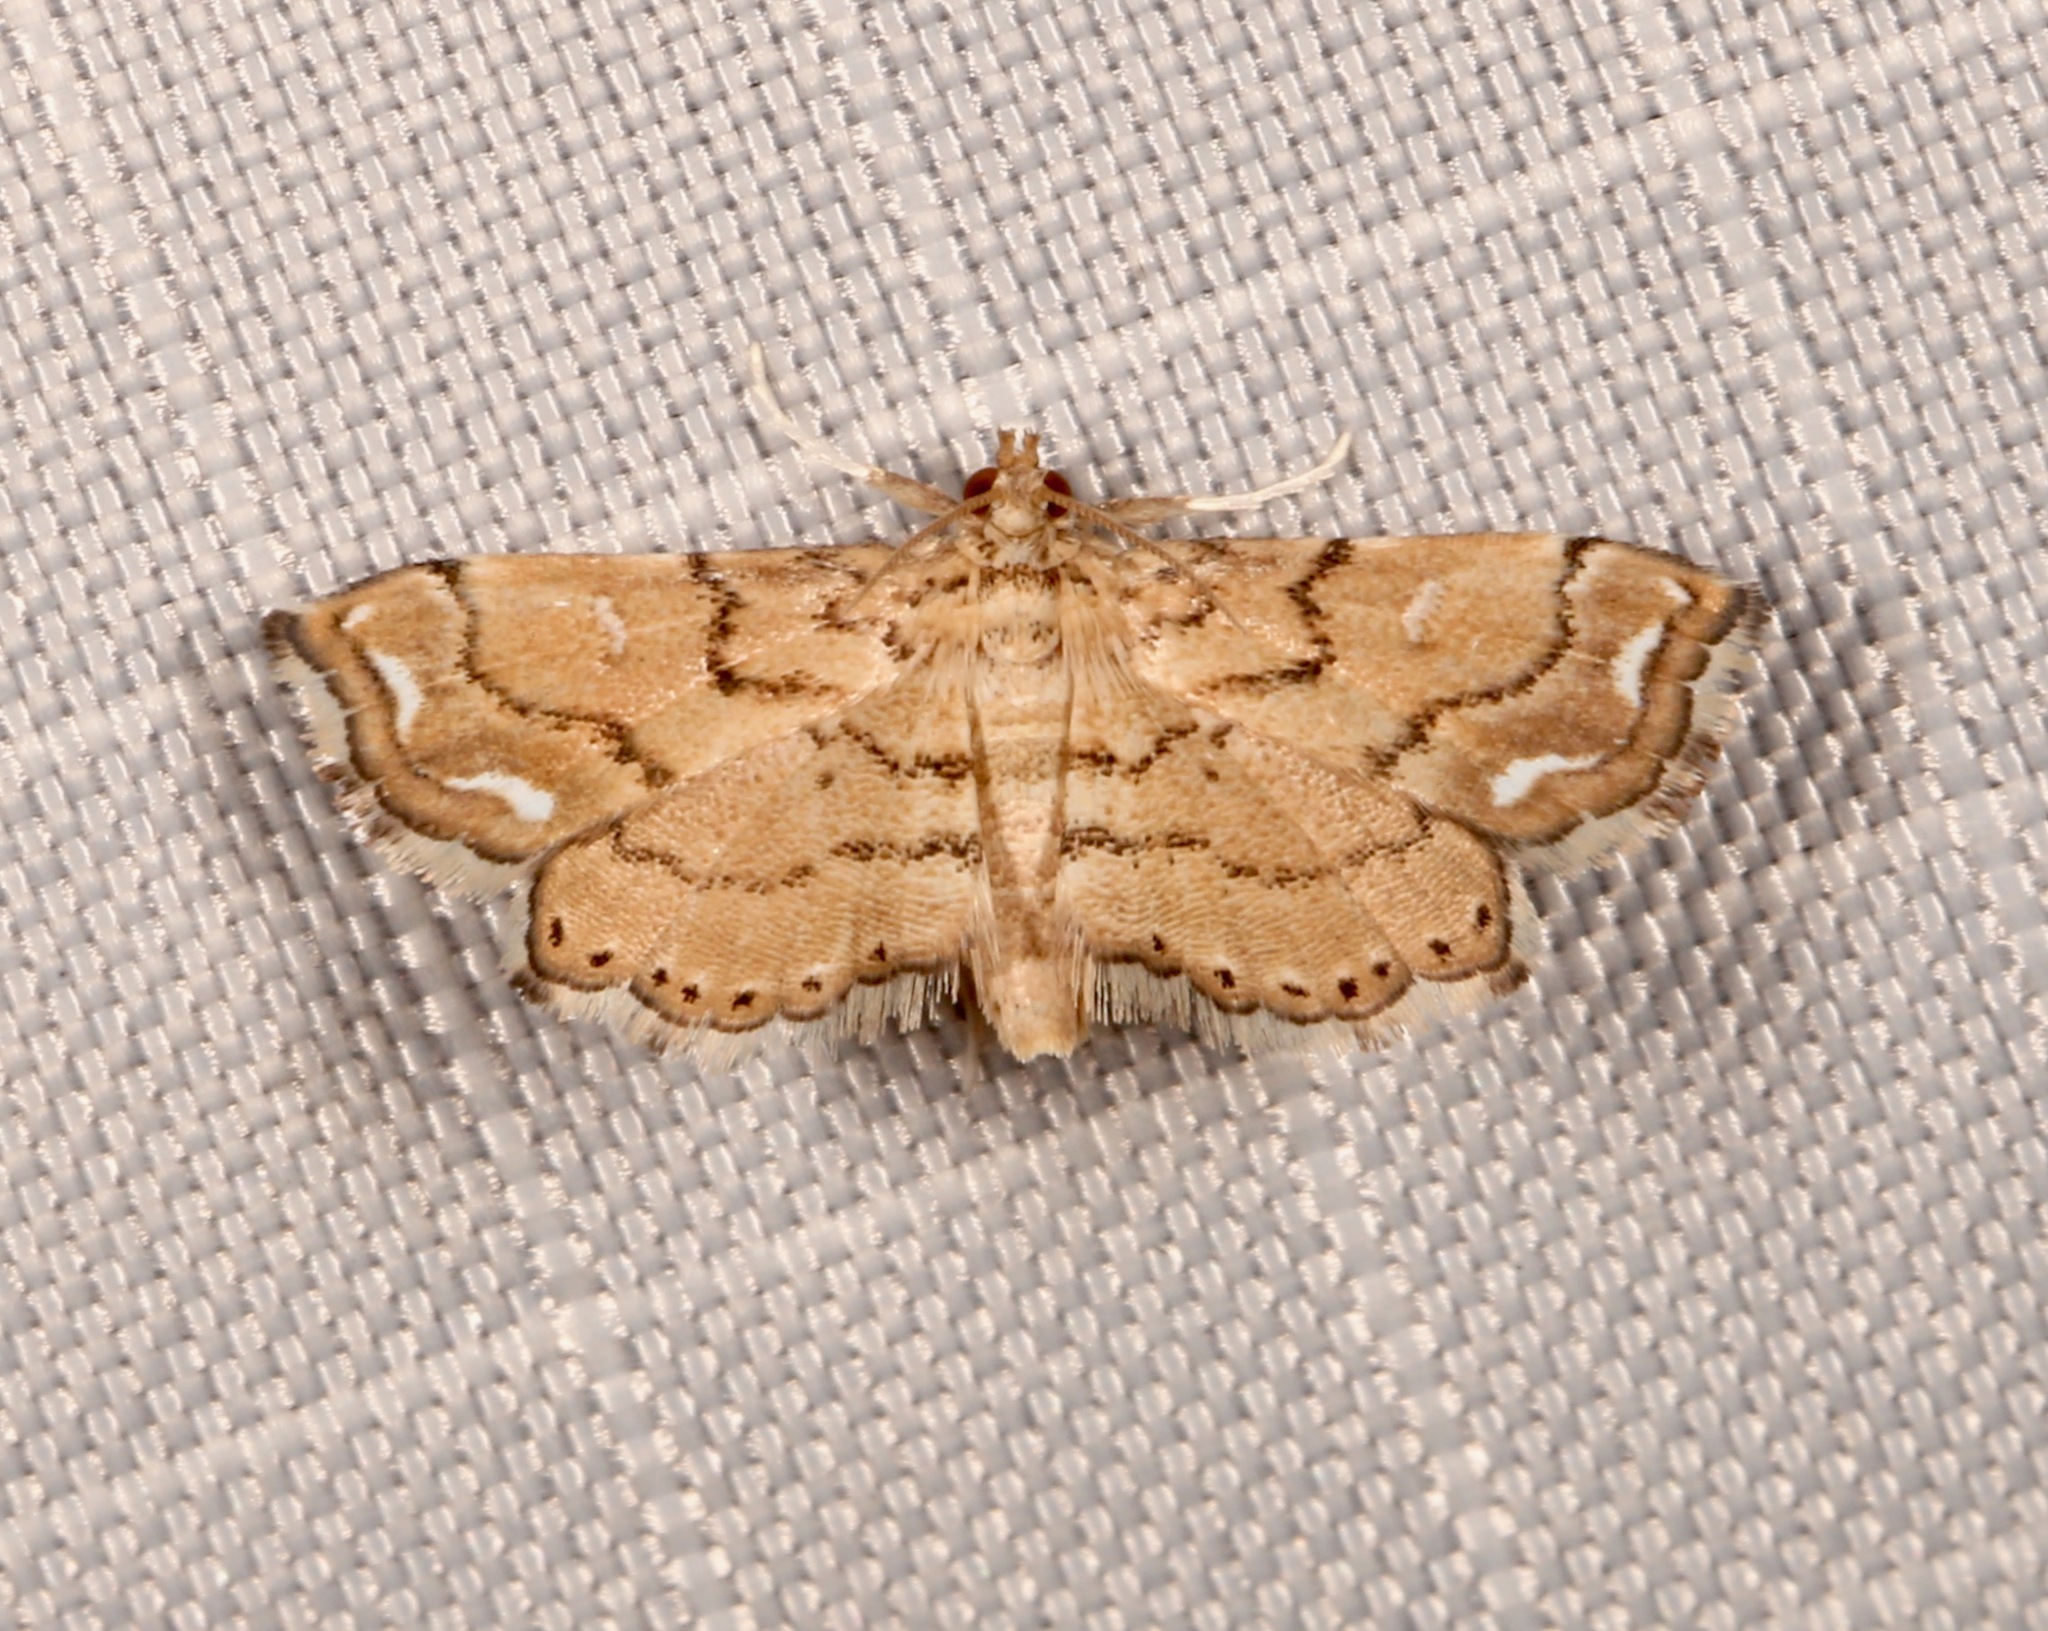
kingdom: Animalia
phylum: Arthropoda
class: Insecta
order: Lepidoptera
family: Pyralidae
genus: Neomusotima
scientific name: Neomusotima conspurcatalis
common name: Lygodium defoliator moth
